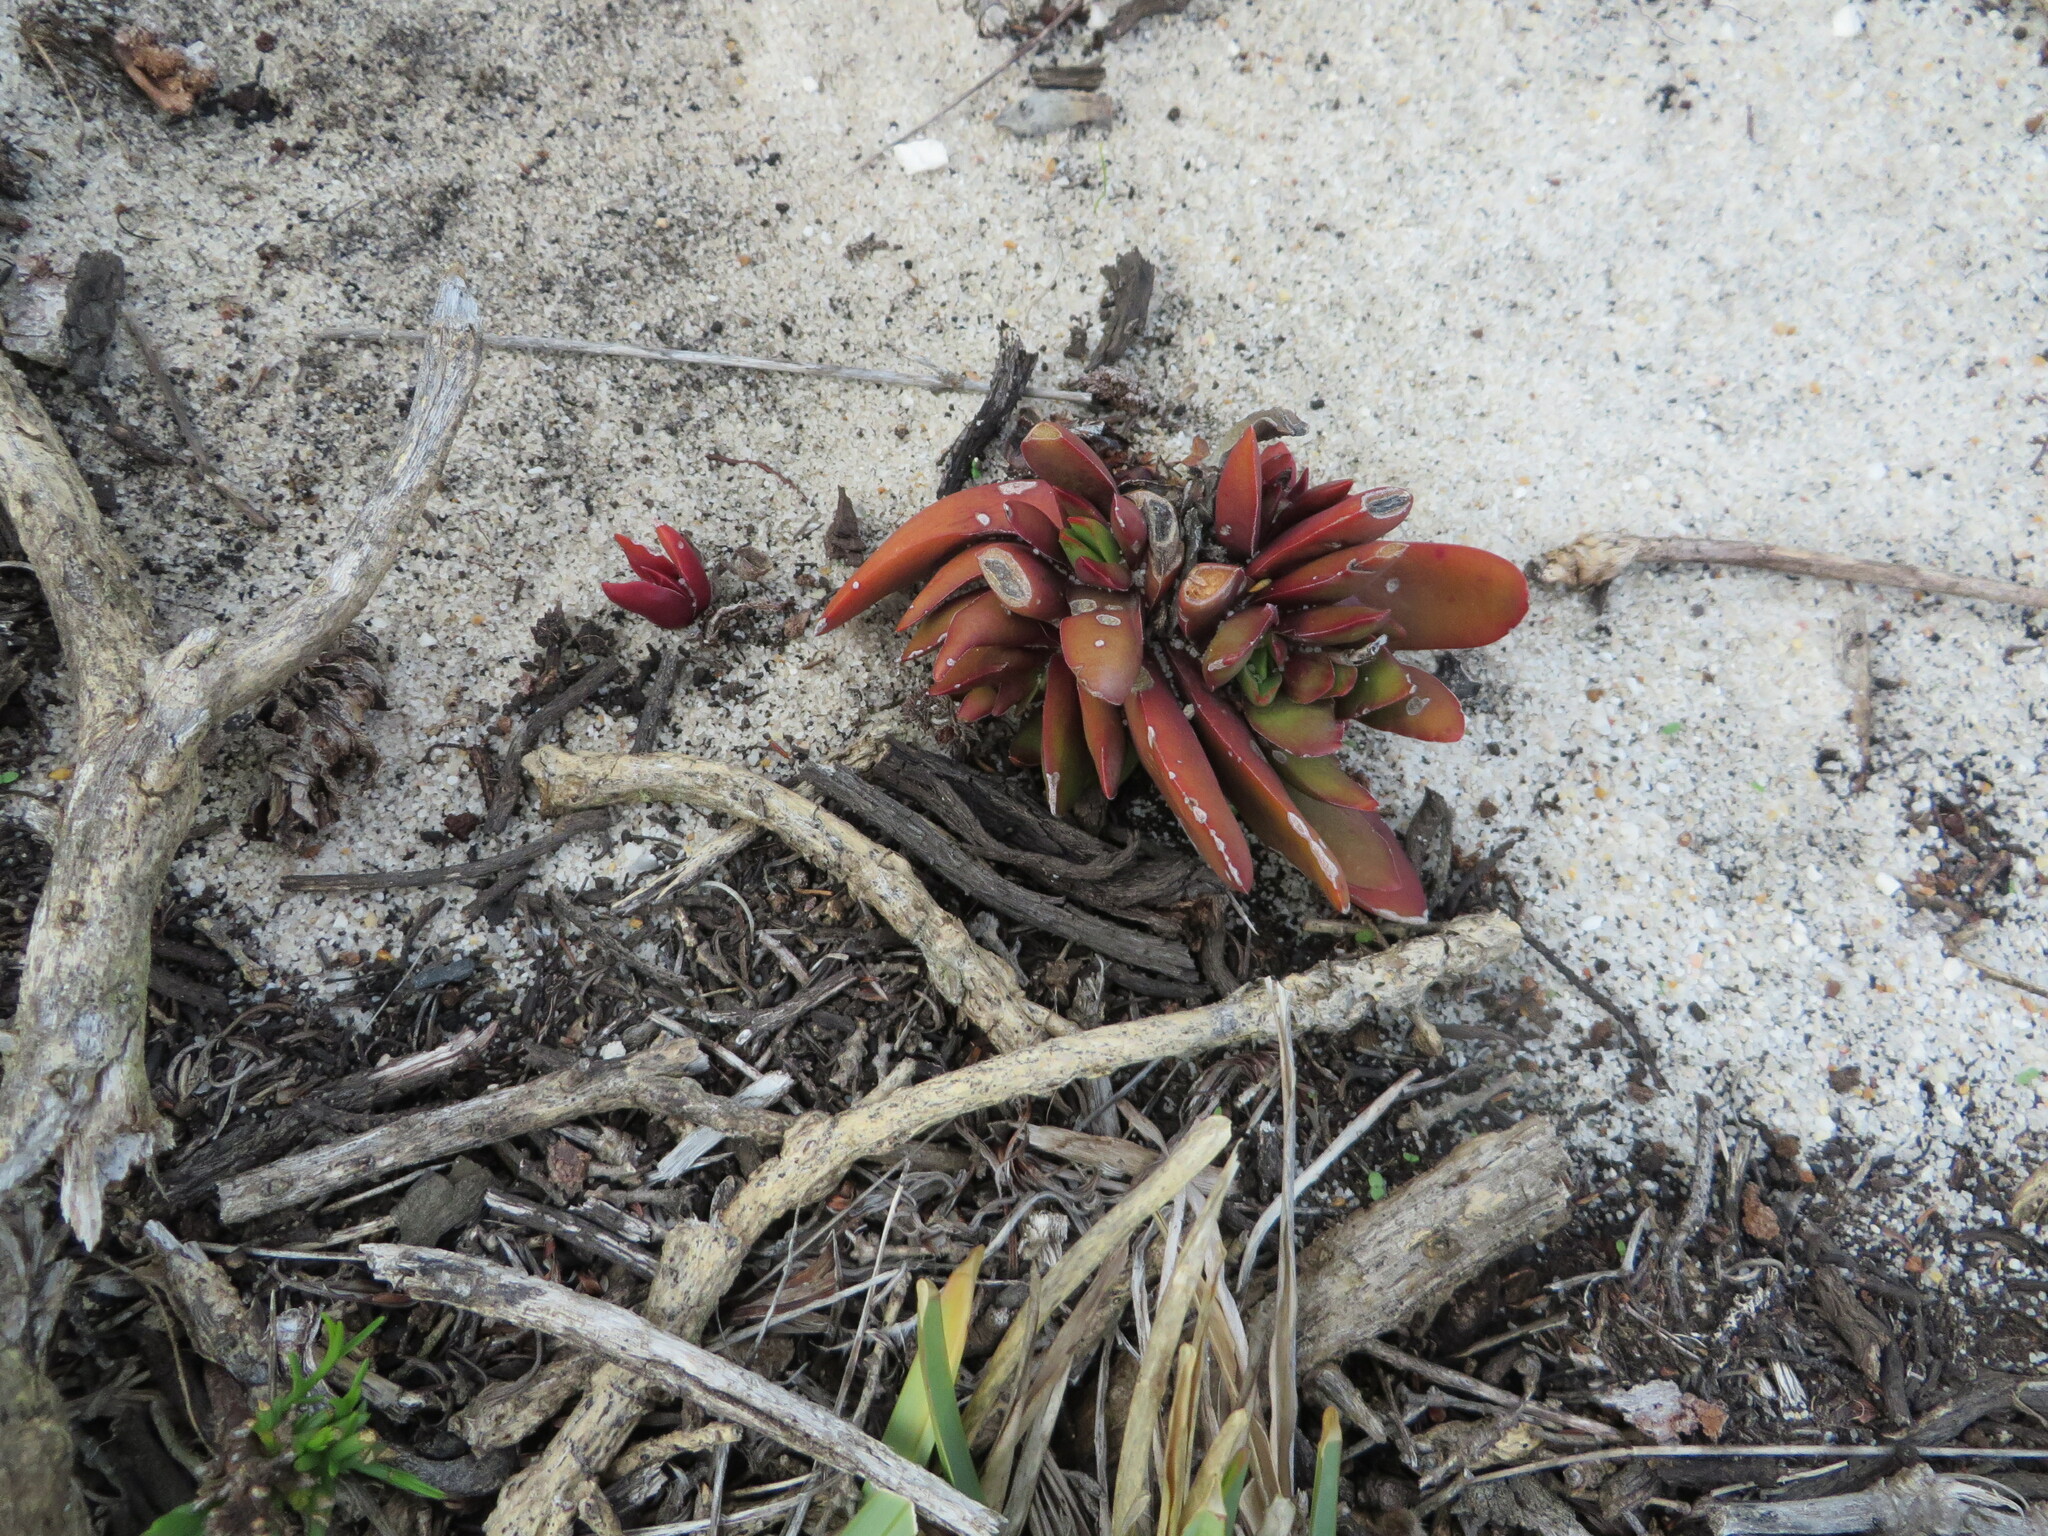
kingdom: Plantae
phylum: Tracheophyta
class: Magnoliopsida
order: Saxifragales
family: Crassulaceae
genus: Crassula
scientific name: Crassula nudicaulis
